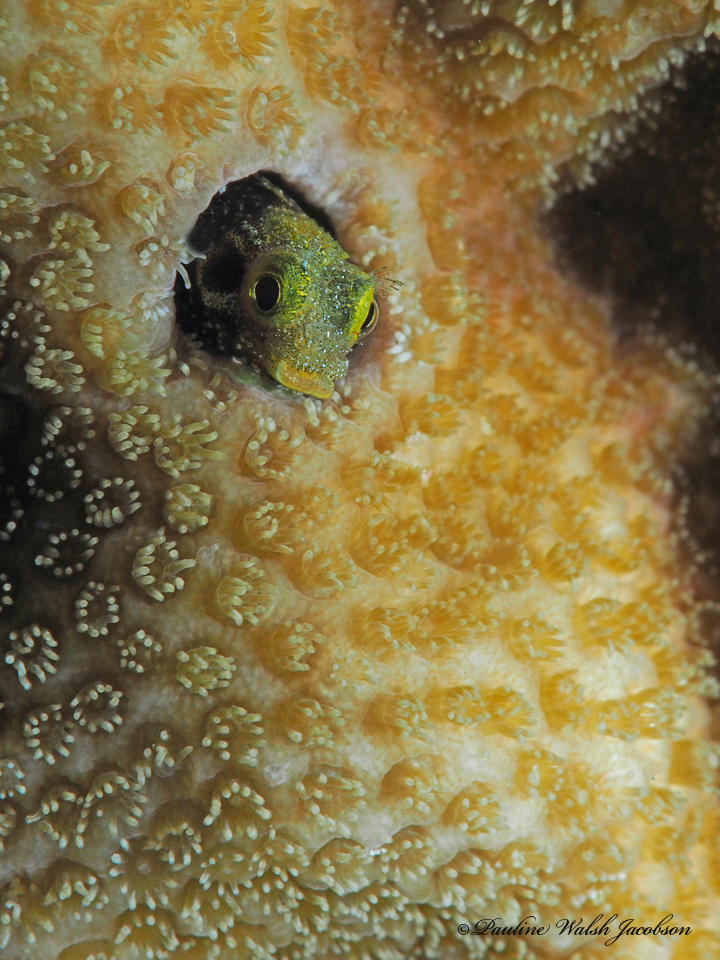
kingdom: Animalia
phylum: Chordata
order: Perciformes
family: Chaenopsidae
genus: Acanthemblemaria
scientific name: Acanthemblemaria spinosa
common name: Spinyhead blenny
